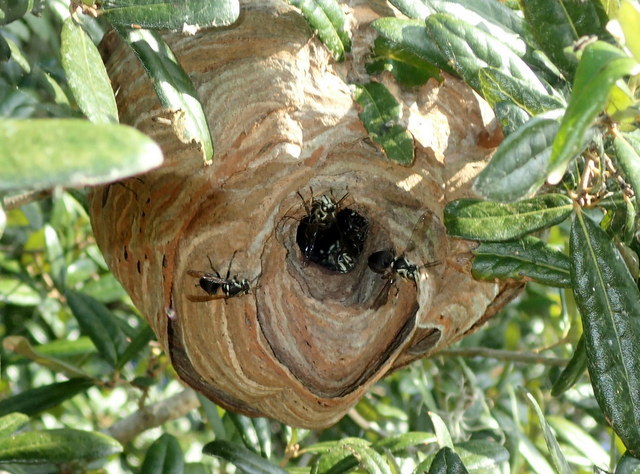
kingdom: Animalia
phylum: Arthropoda
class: Insecta
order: Hymenoptera
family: Vespidae
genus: Dolichovespula
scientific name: Dolichovespula maculata
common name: Bald-faced hornet
